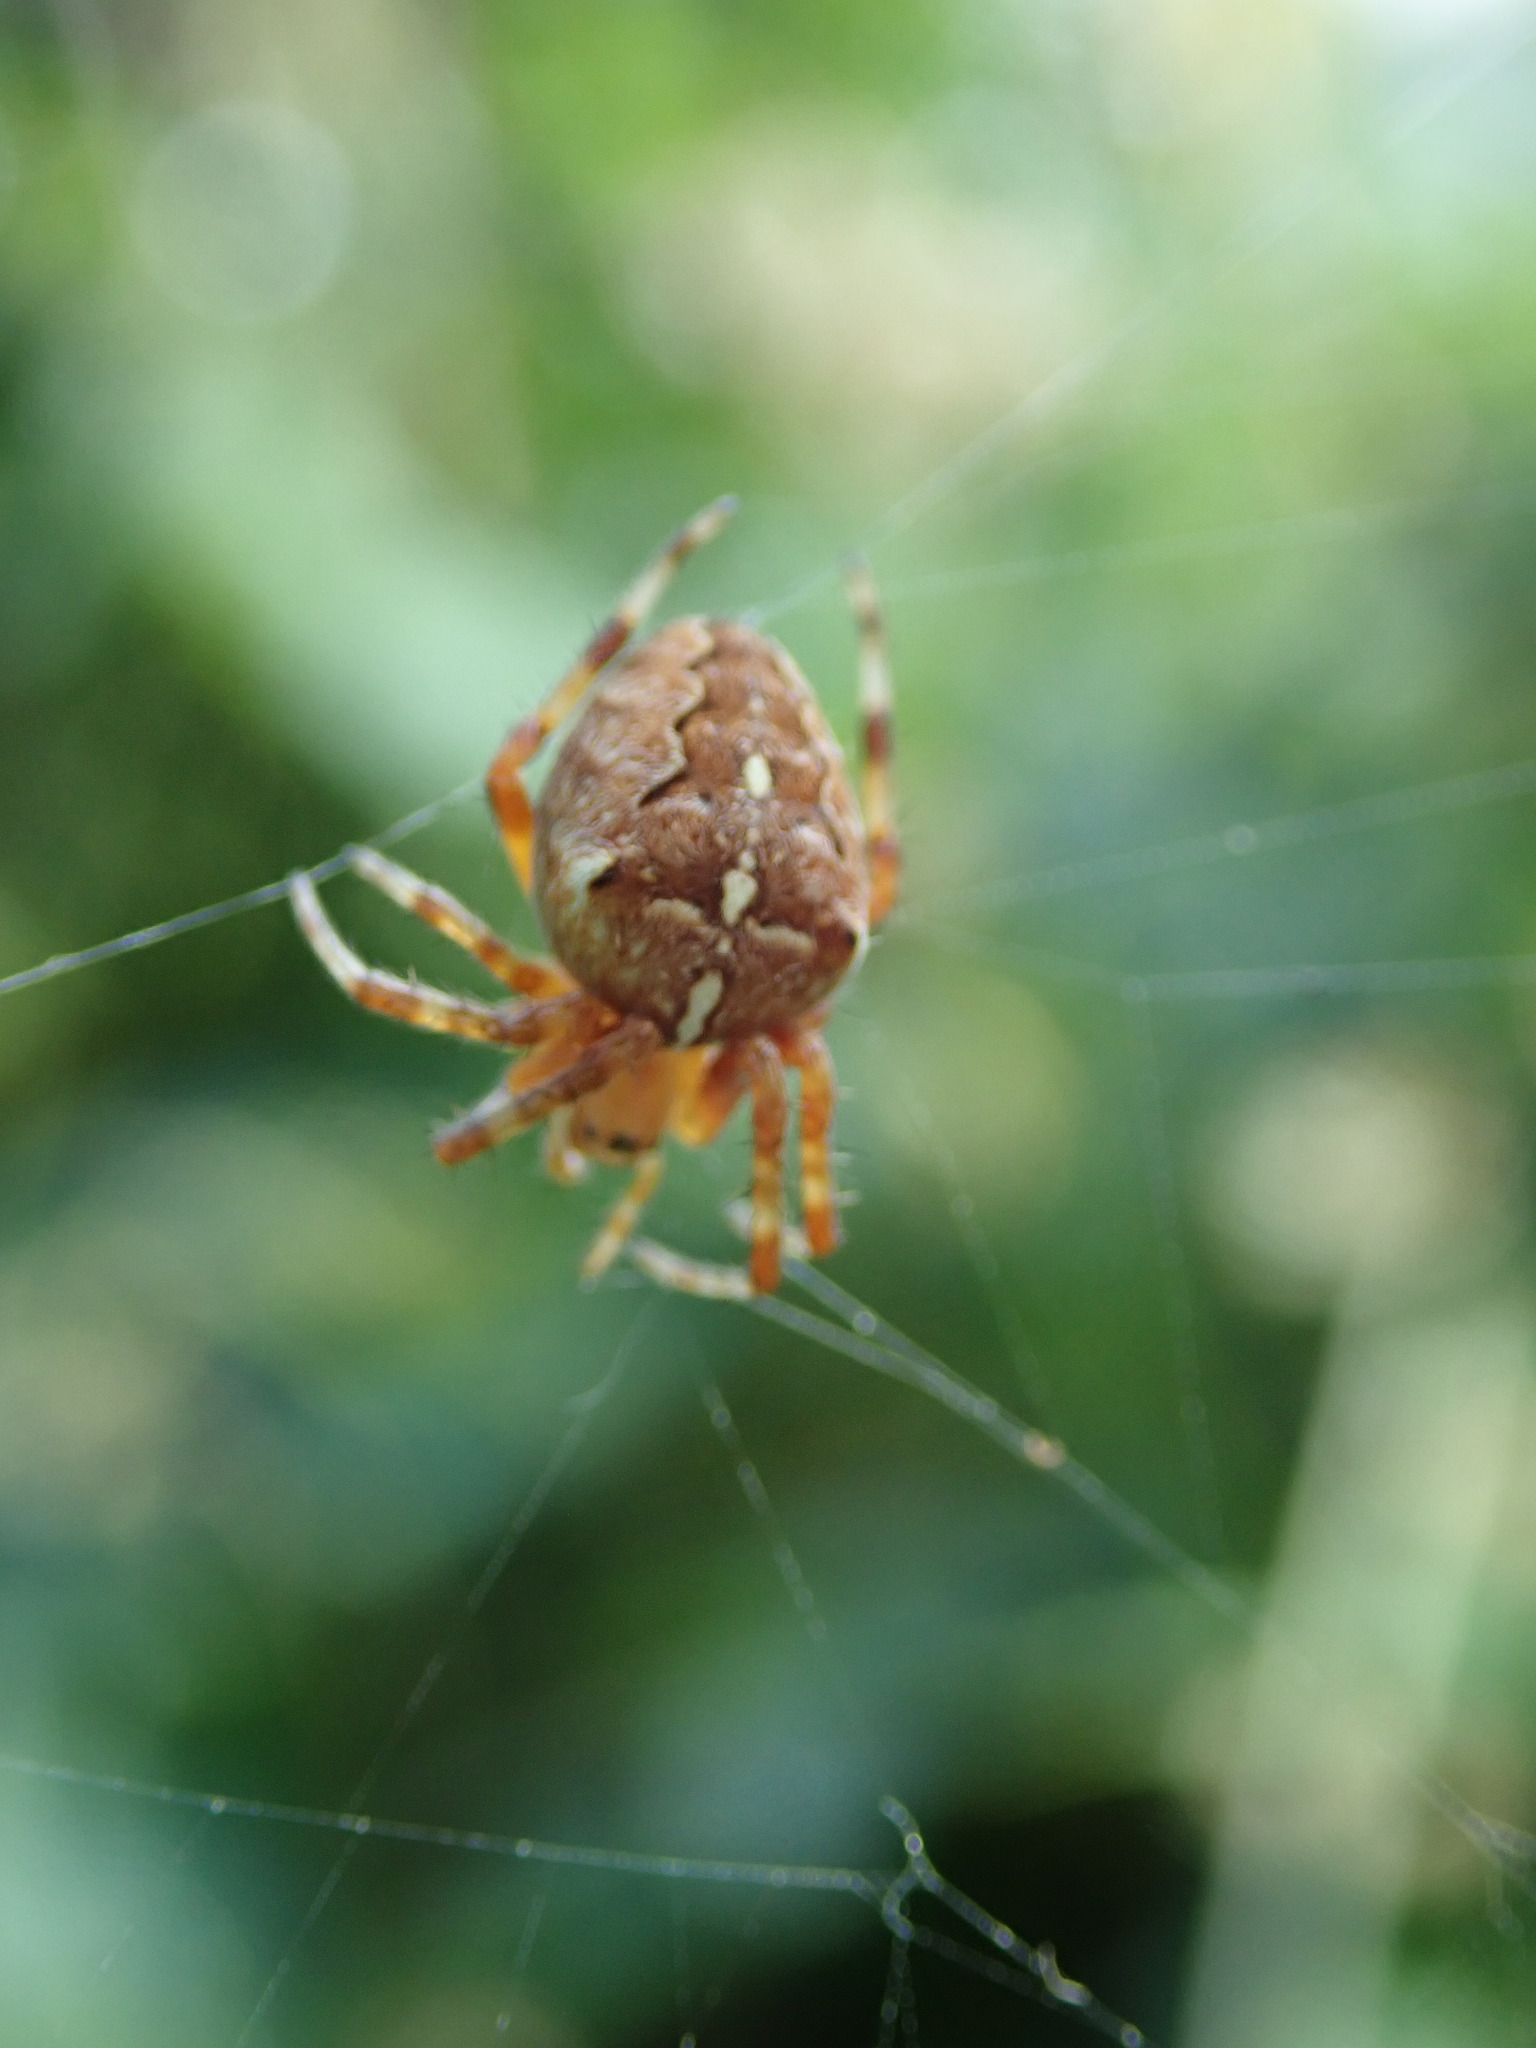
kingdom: Animalia
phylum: Arthropoda
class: Arachnida
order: Araneae
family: Araneidae
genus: Araneus
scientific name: Araneus diadematus
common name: Cross orbweaver
